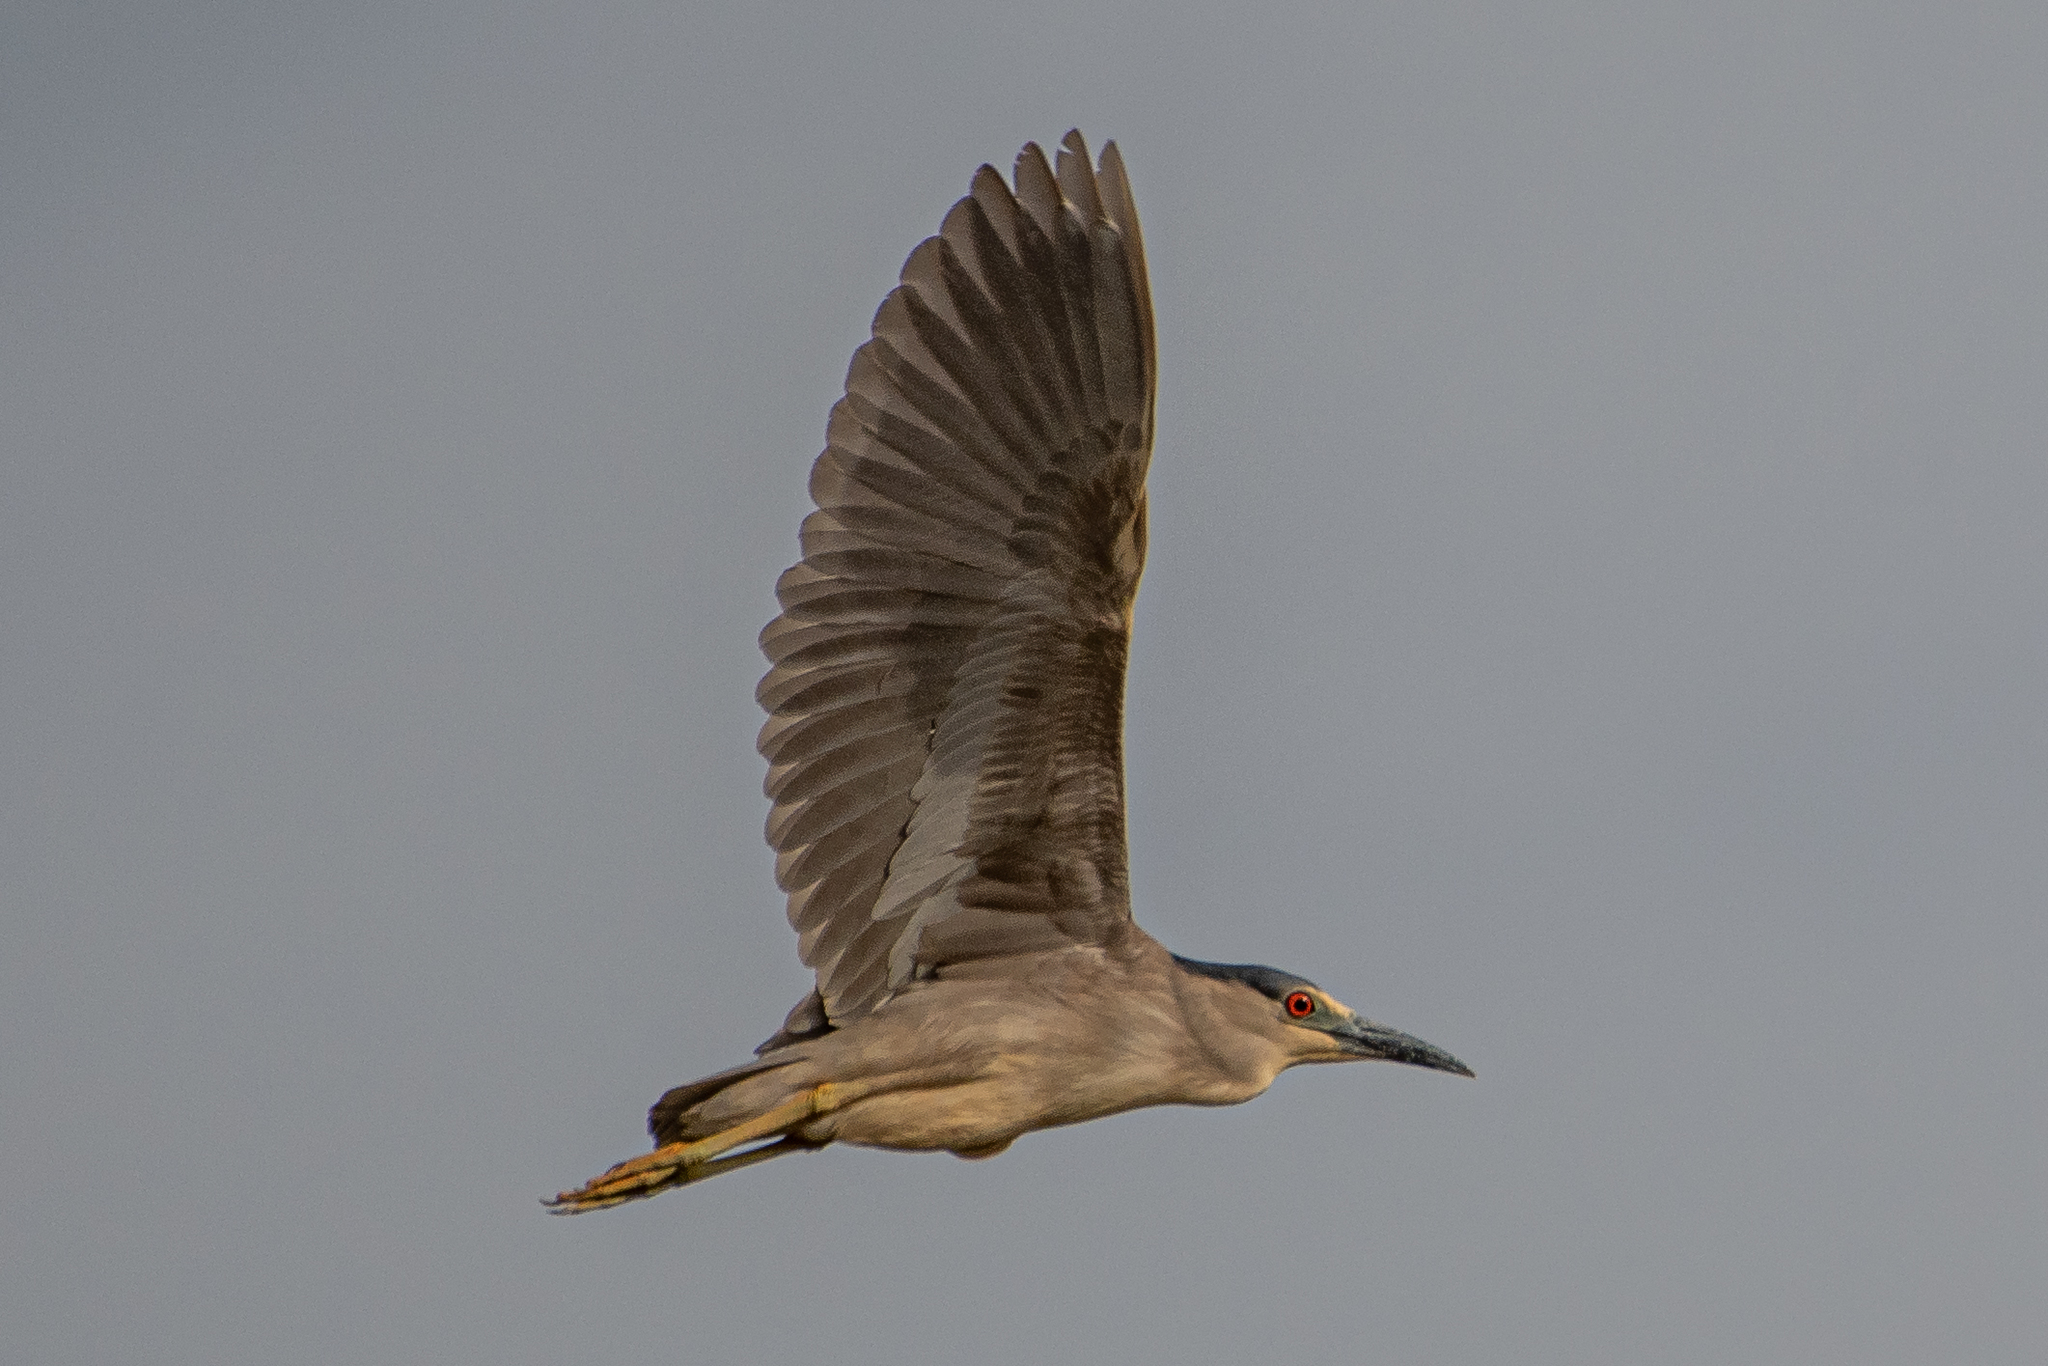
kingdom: Animalia
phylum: Chordata
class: Aves
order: Pelecaniformes
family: Ardeidae
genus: Nycticorax
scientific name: Nycticorax nycticorax
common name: Black-crowned night heron
